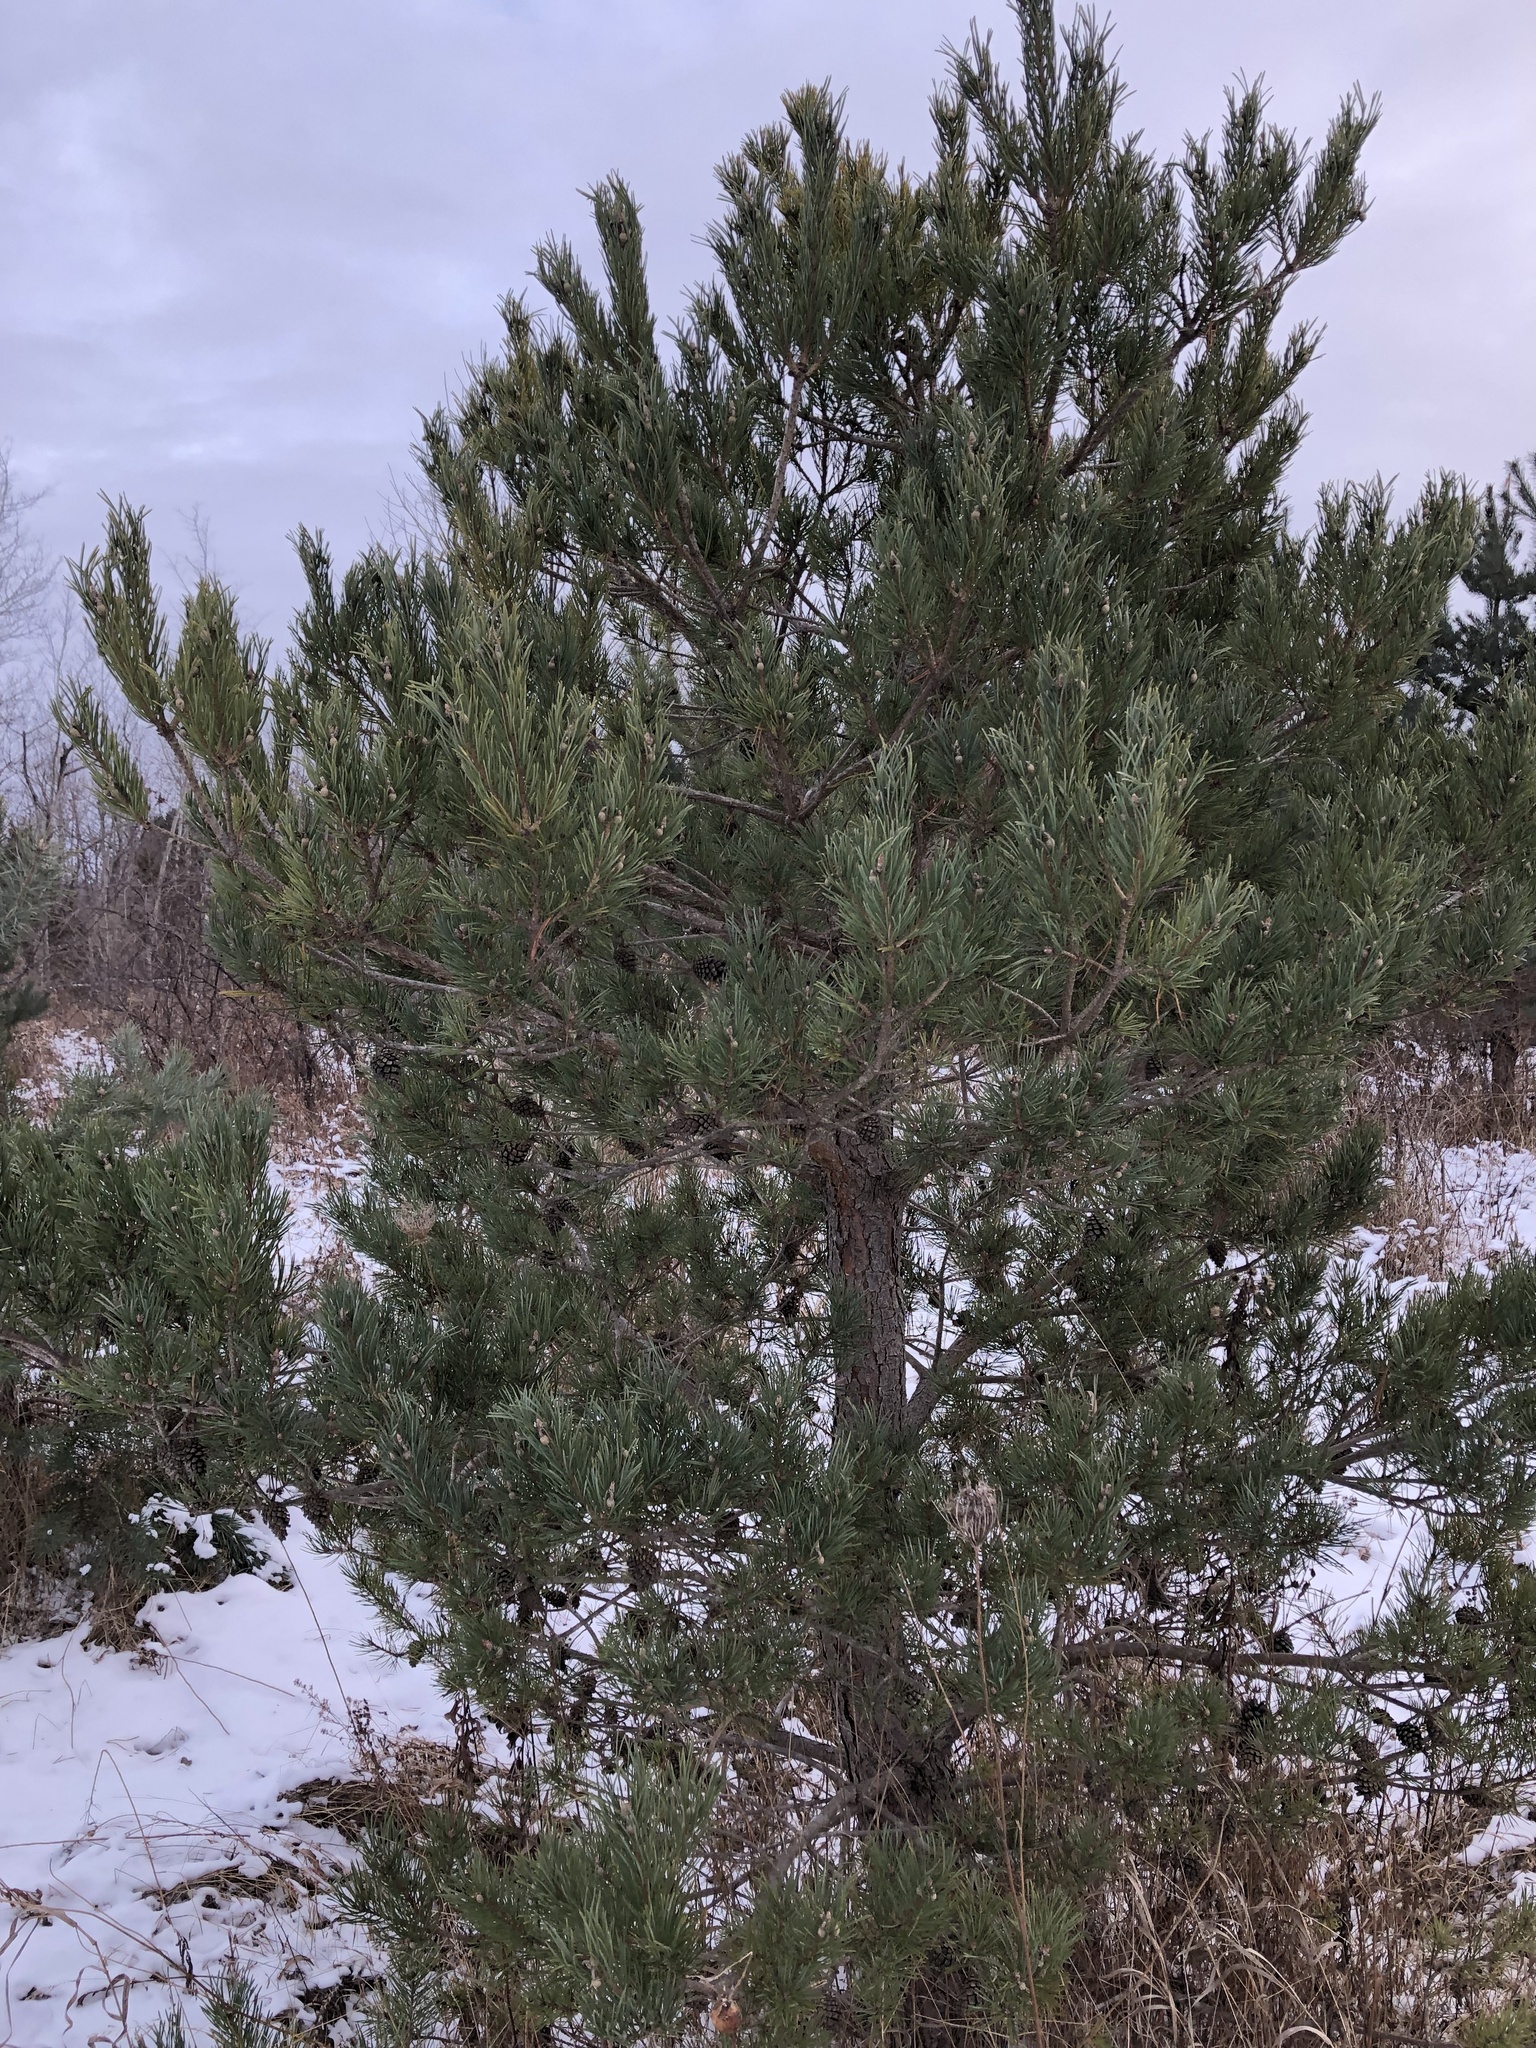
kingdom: Plantae
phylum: Tracheophyta
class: Pinopsida
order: Pinales
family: Pinaceae
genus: Pinus
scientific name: Pinus sylvestris
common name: Scots pine
